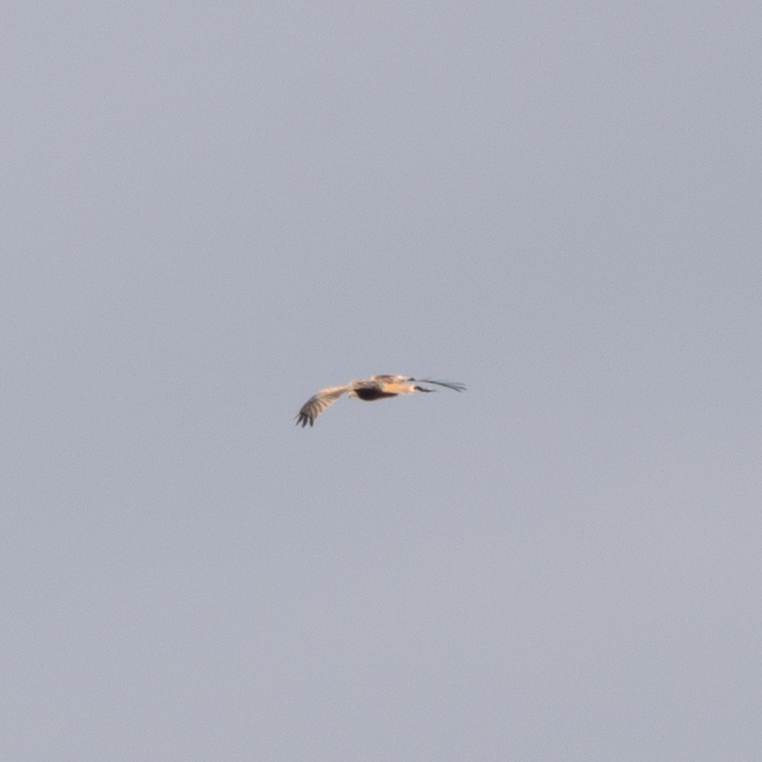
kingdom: Animalia
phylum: Chordata
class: Aves
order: Accipitriformes
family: Accipitridae
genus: Milvus
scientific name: Milvus milvus
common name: Red kite
